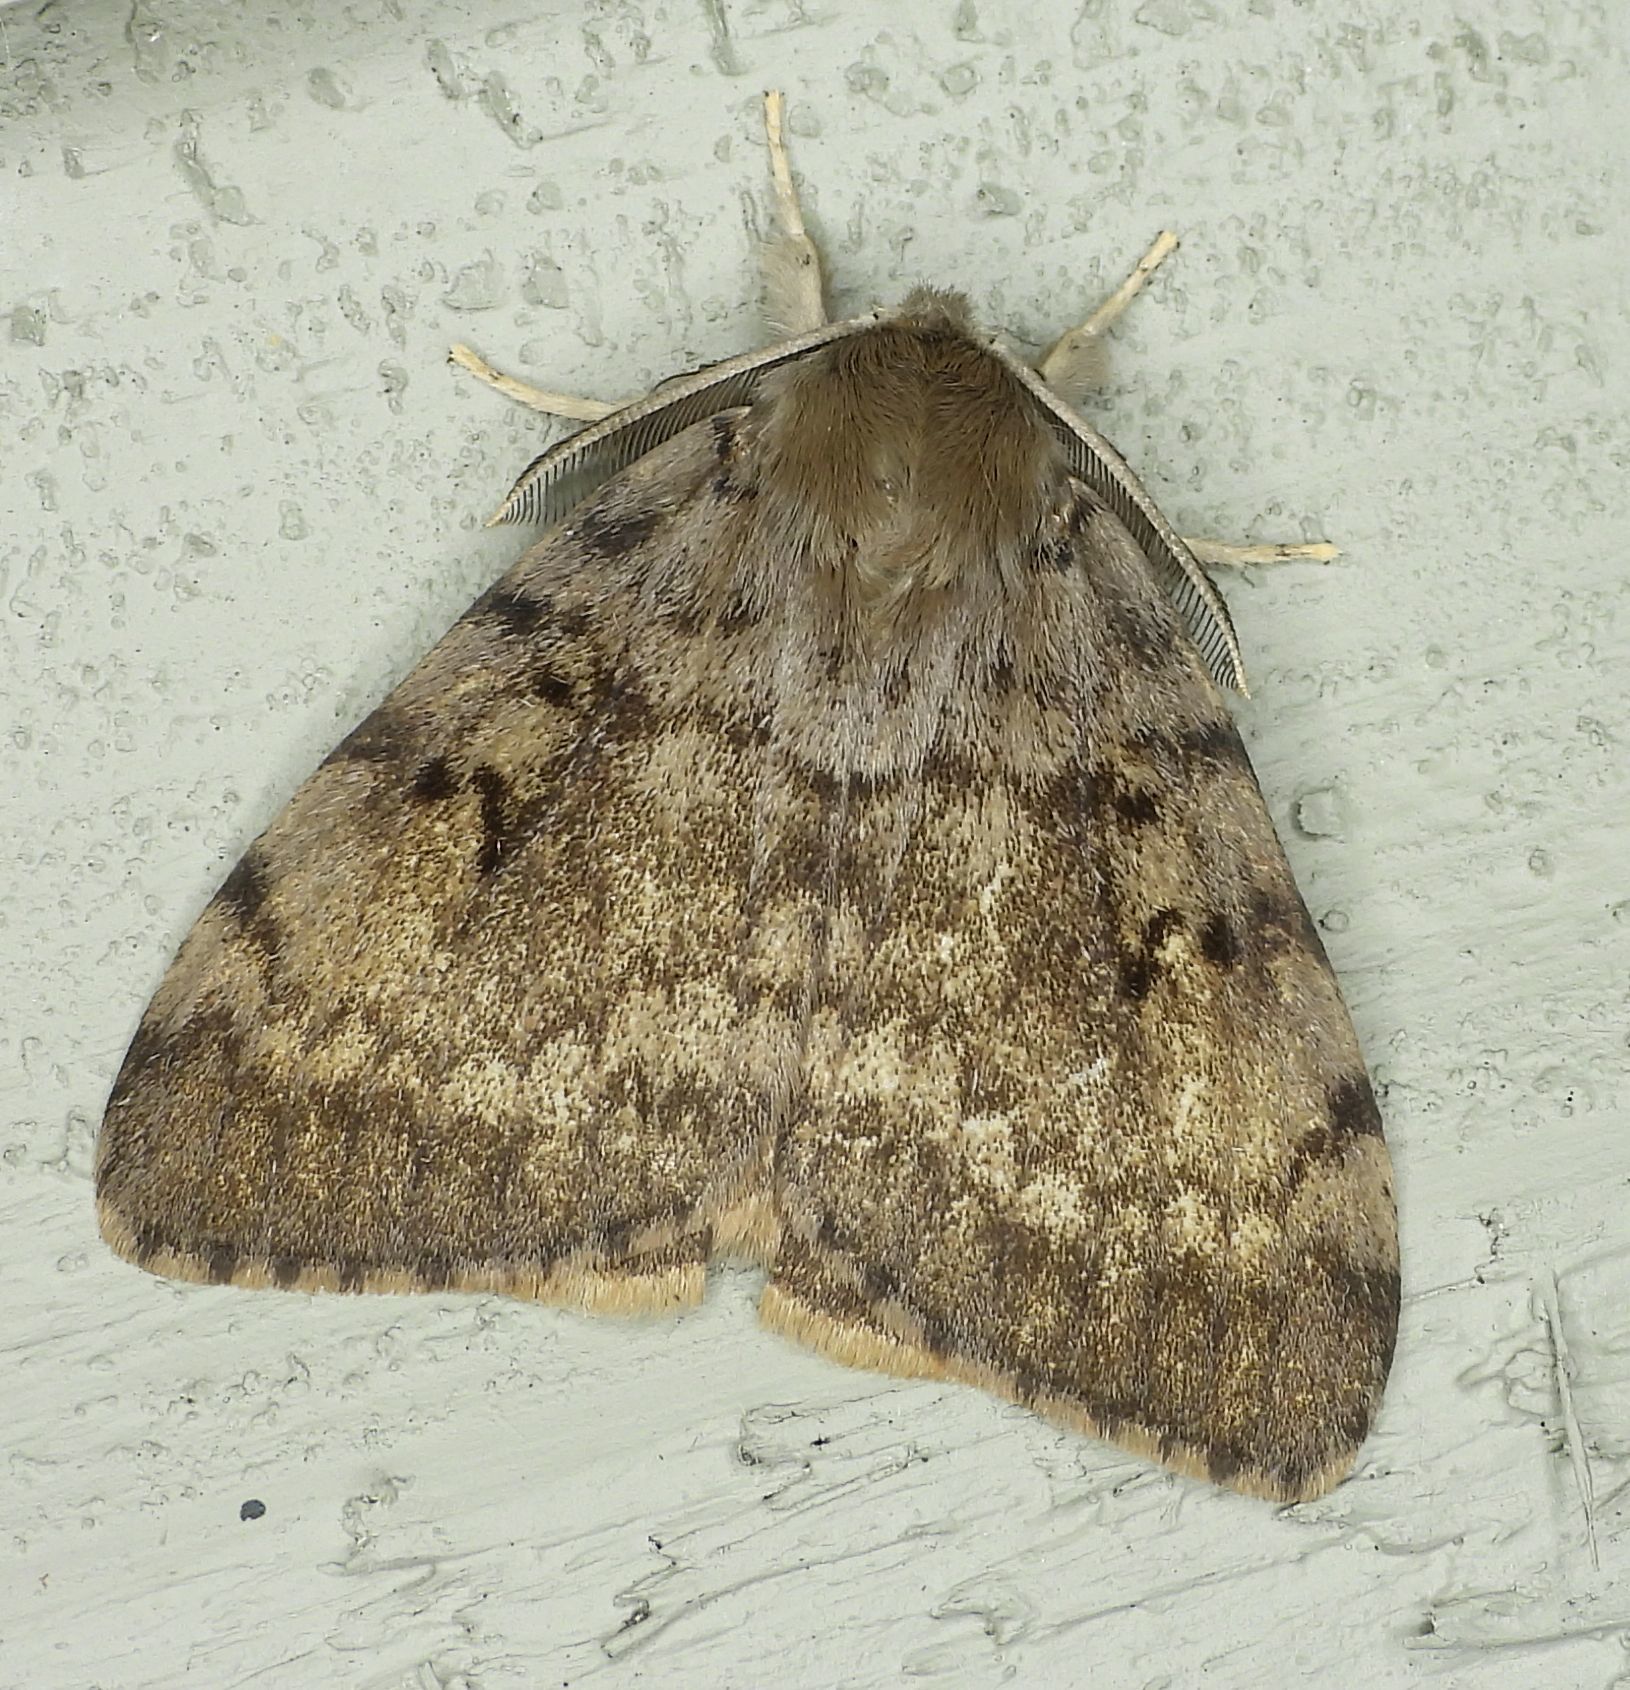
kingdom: Animalia
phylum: Arthropoda
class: Insecta
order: Lepidoptera
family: Erebidae
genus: Lymantria
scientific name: Lymantria dispar
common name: Gypsy moth
